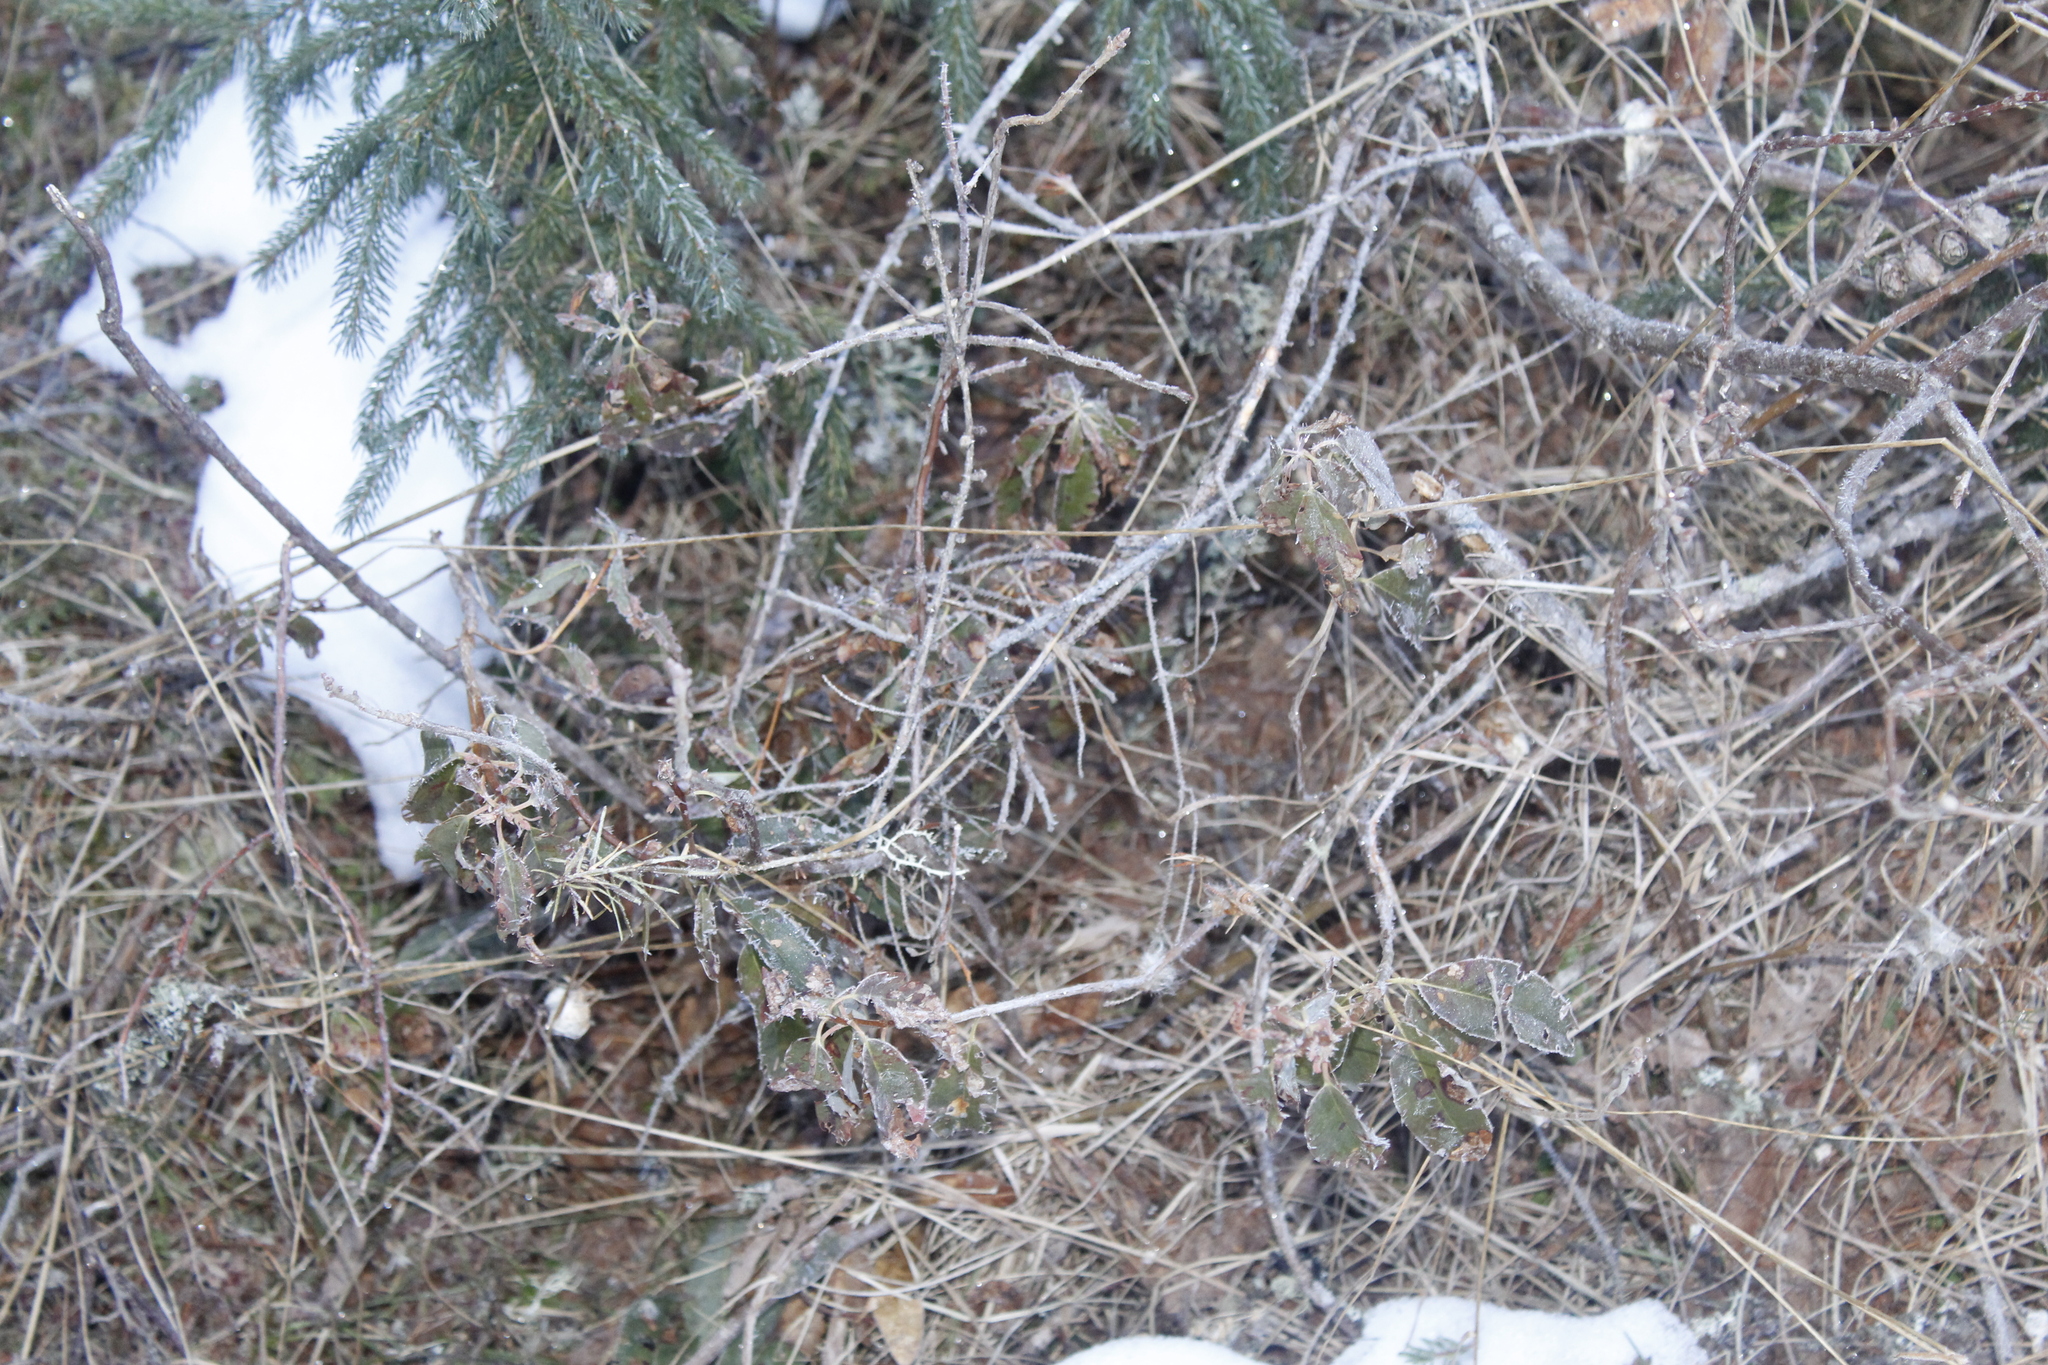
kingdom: Plantae
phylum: Tracheophyta
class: Magnoliopsida
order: Ericales
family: Ericaceae
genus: Kalmia
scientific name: Kalmia angustifolia
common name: Sheep-laurel
